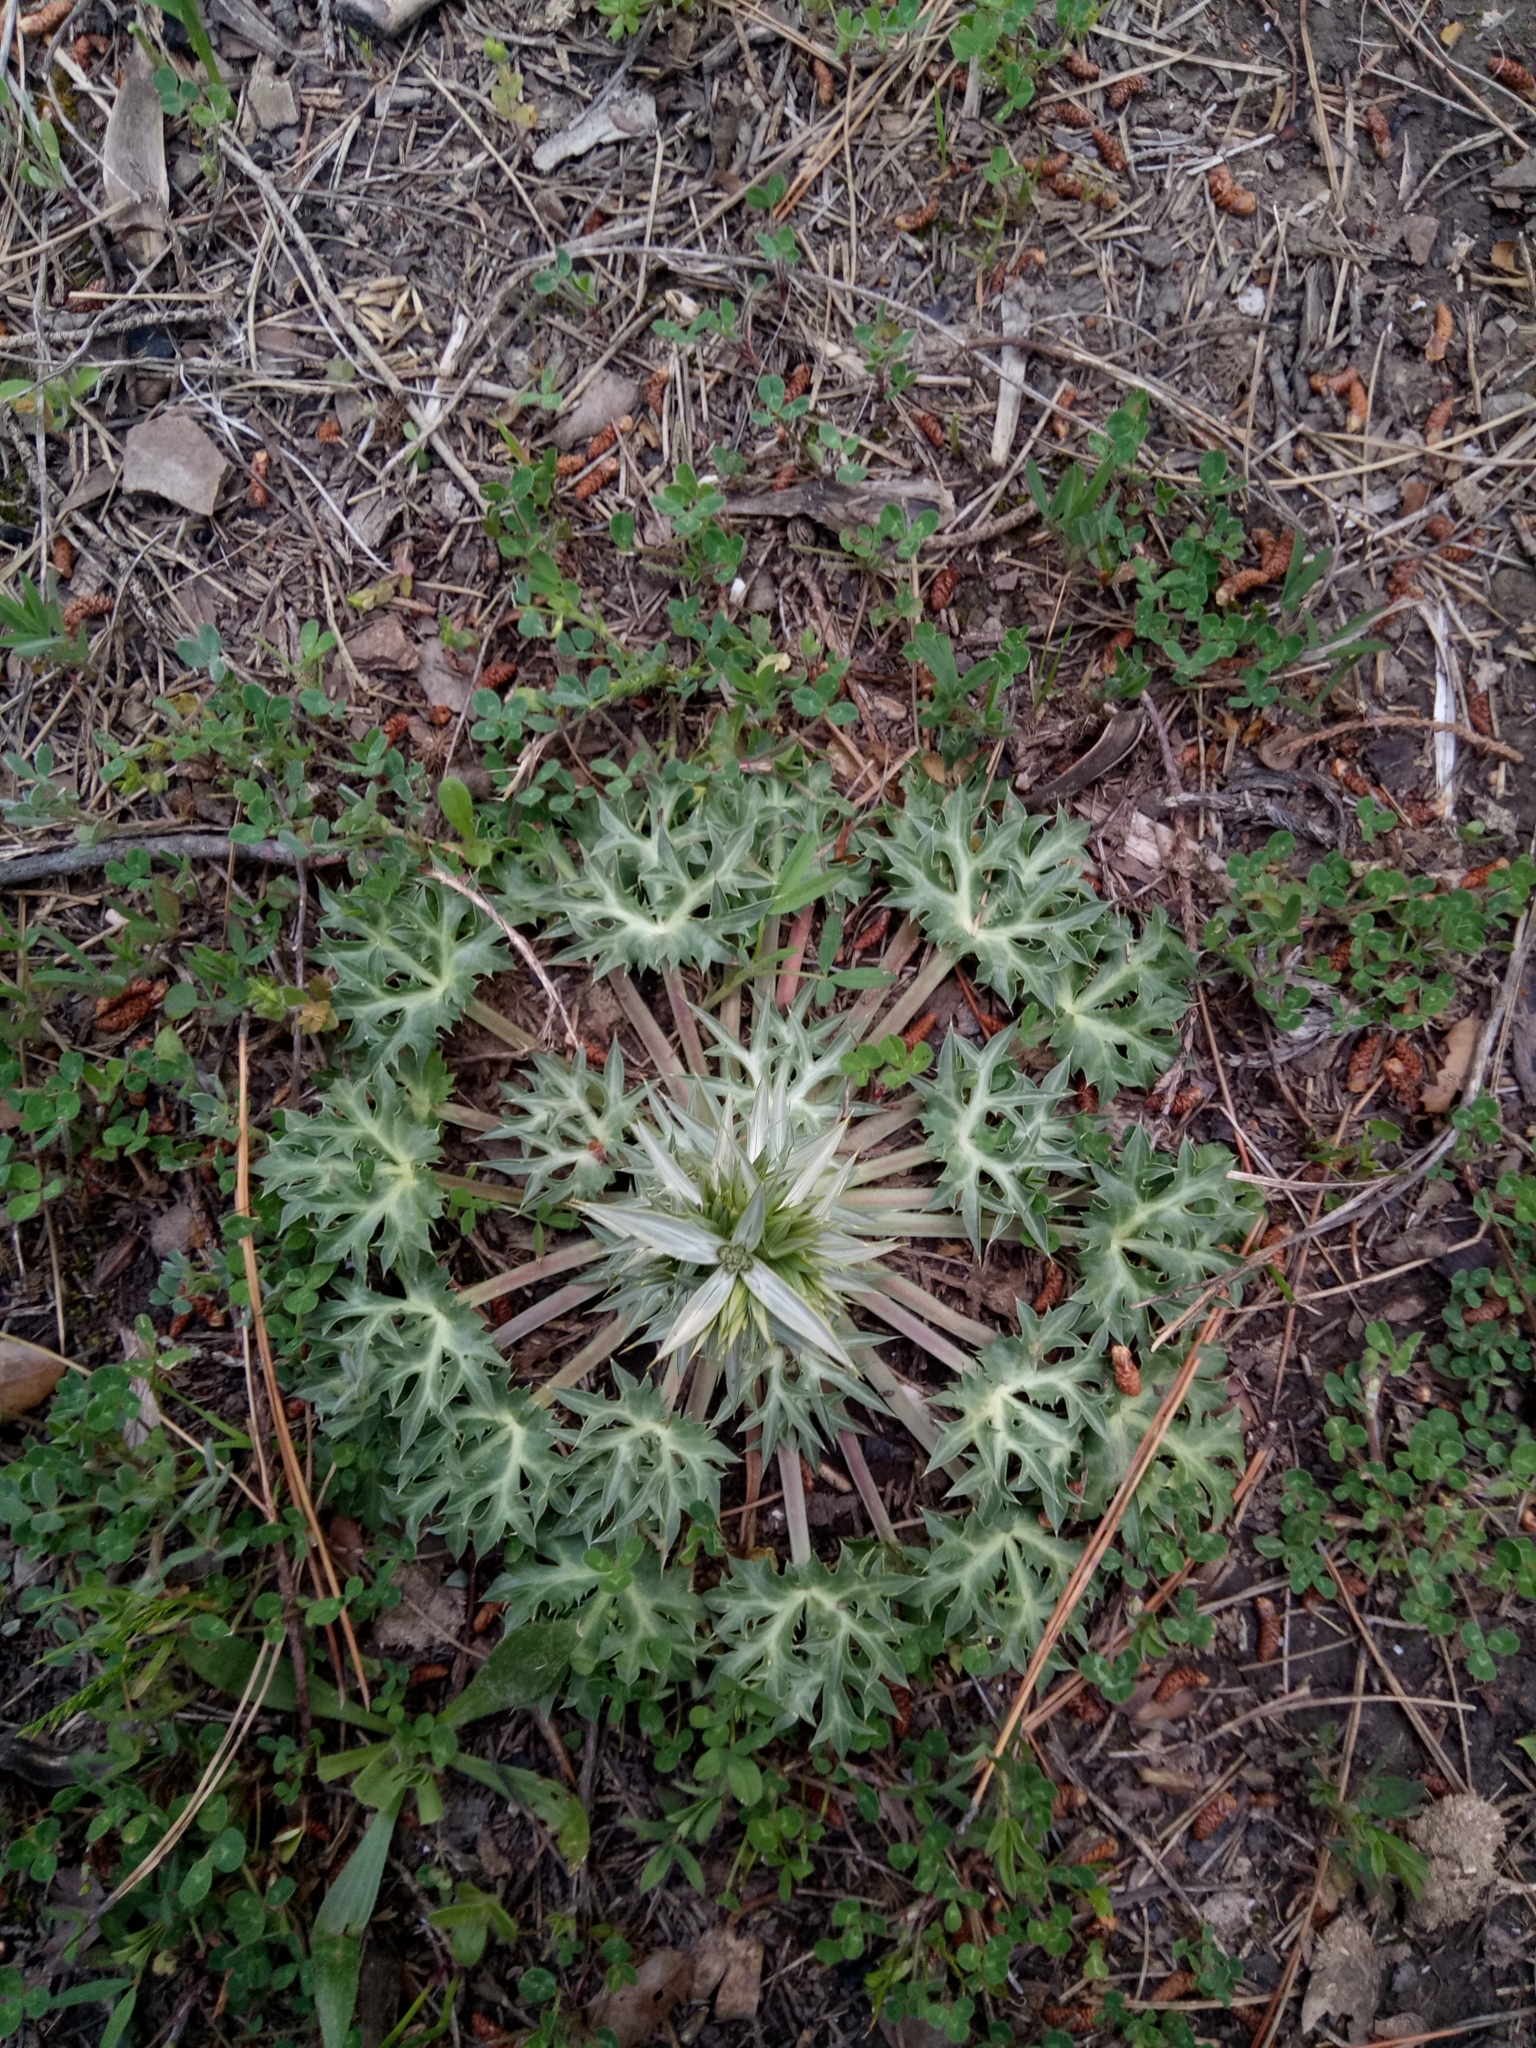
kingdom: Plantae
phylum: Tracheophyta
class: Magnoliopsida
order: Apiales
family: Apiaceae
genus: Eryngium
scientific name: Eryngium triquetrum
